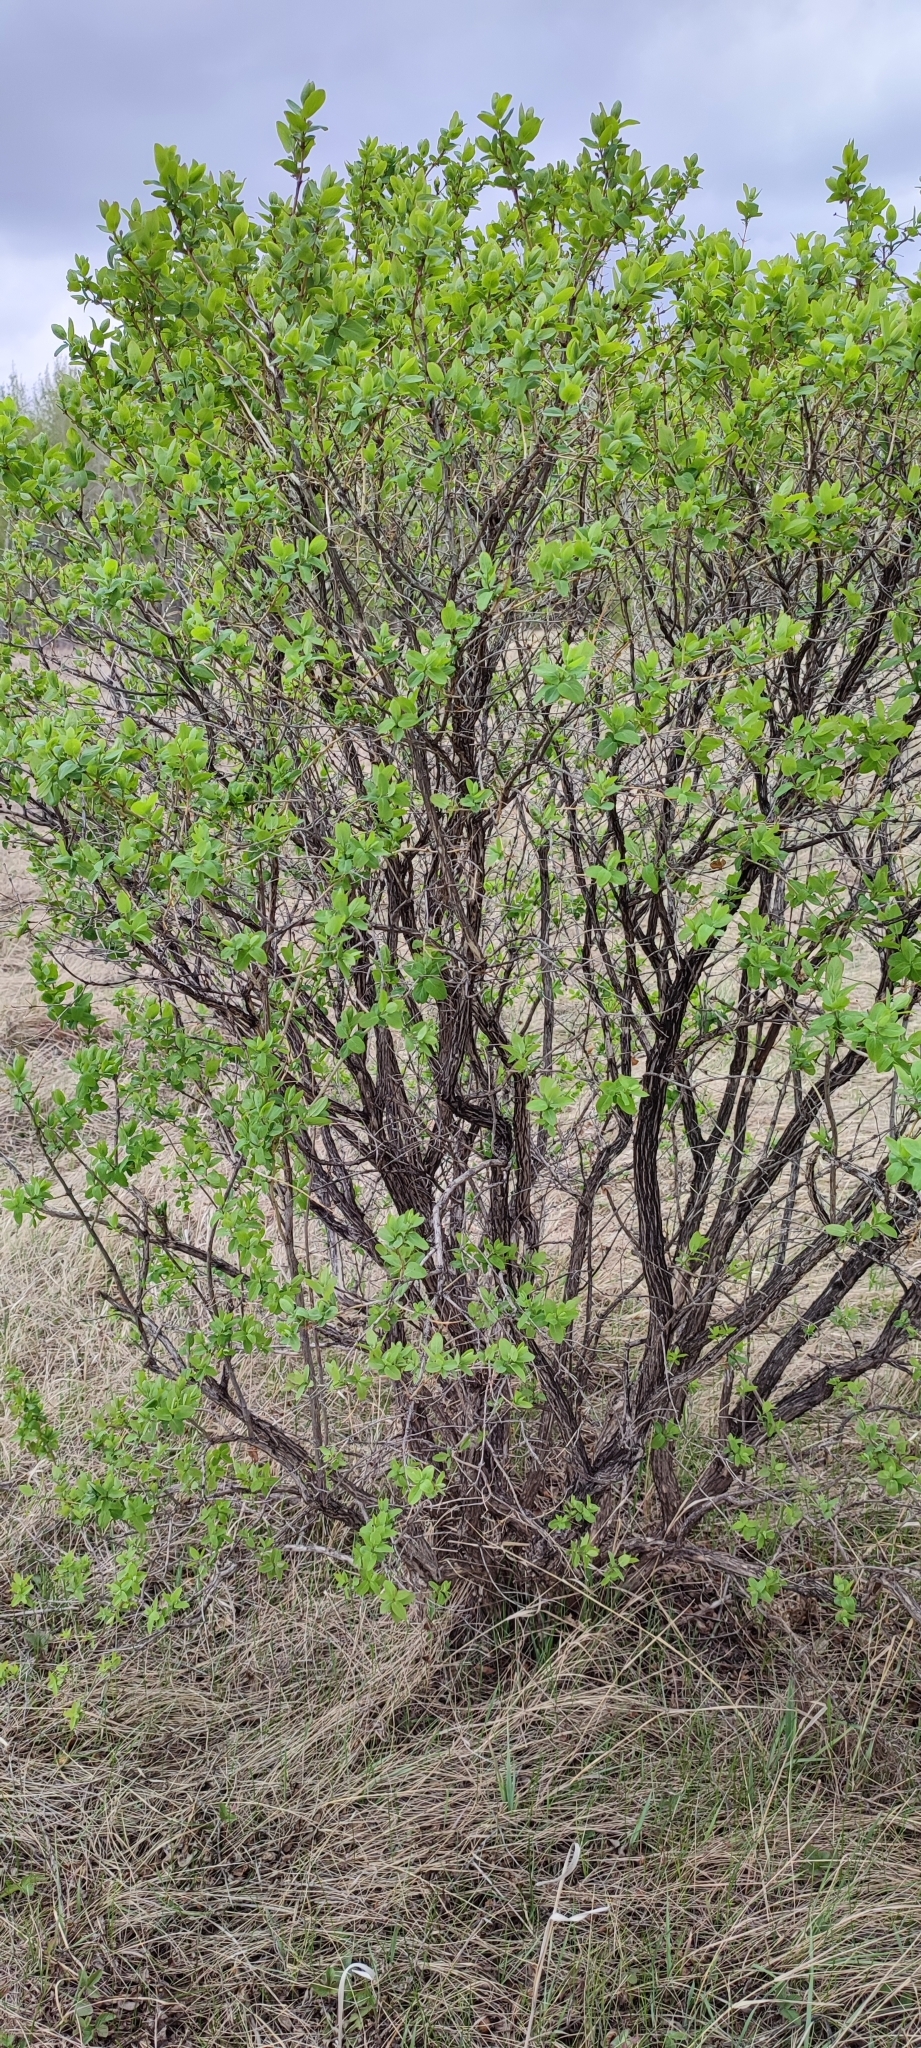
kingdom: Plantae
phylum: Tracheophyta
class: Magnoliopsida
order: Dipsacales
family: Caprifoliaceae
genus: Lonicera
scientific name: Lonicera tatarica
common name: Tatarian honeysuckle
